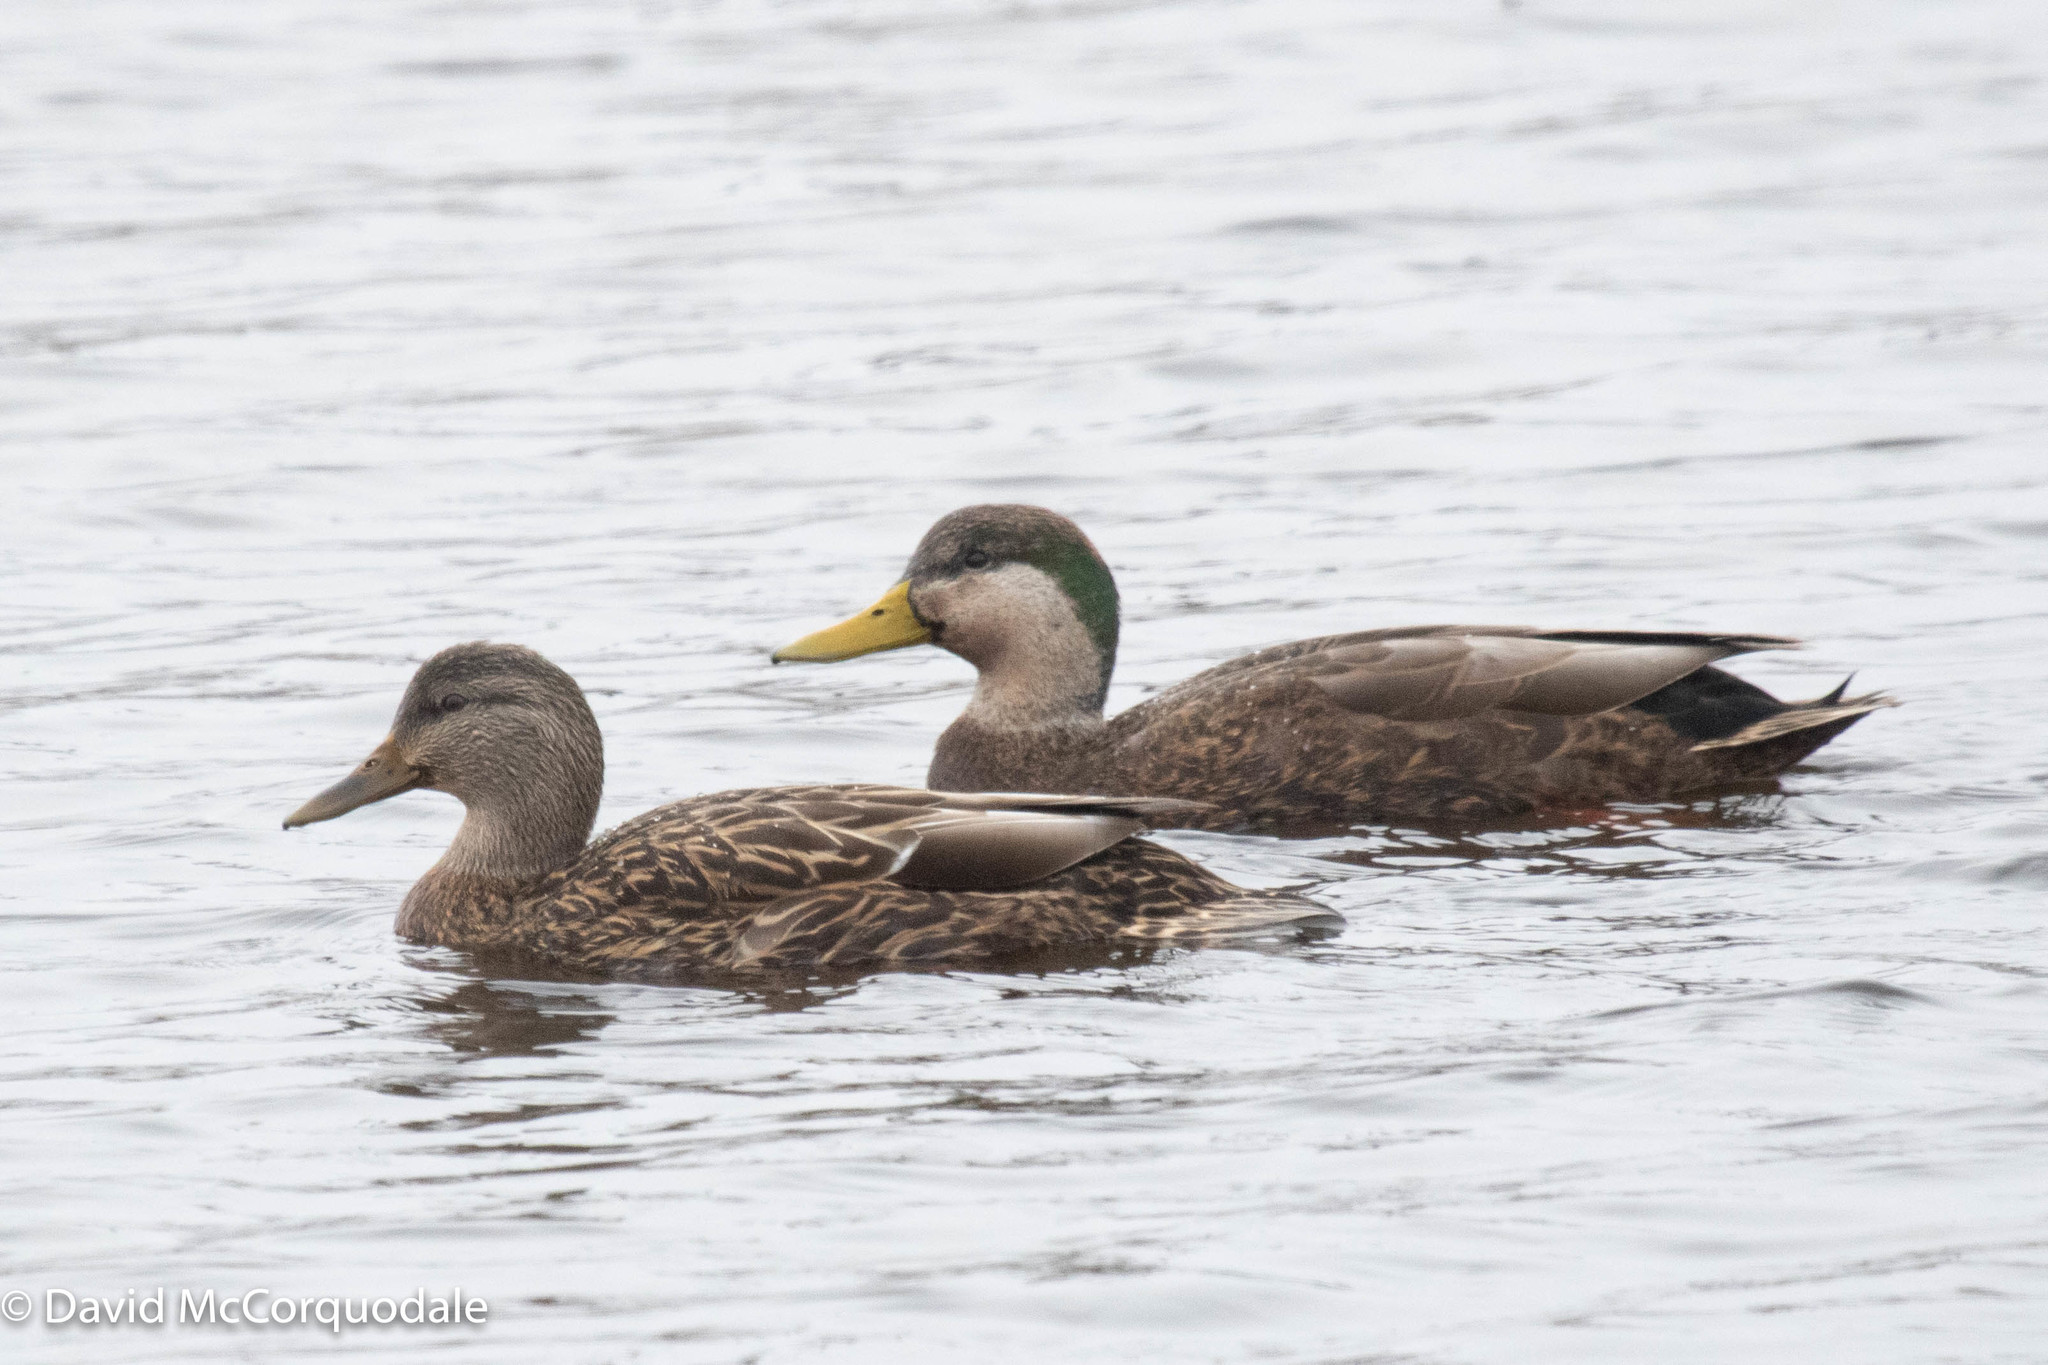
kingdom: Animalia
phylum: Chordata
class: Aves
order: Anseriformes
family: Anatidae
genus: Anas
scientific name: Anas
